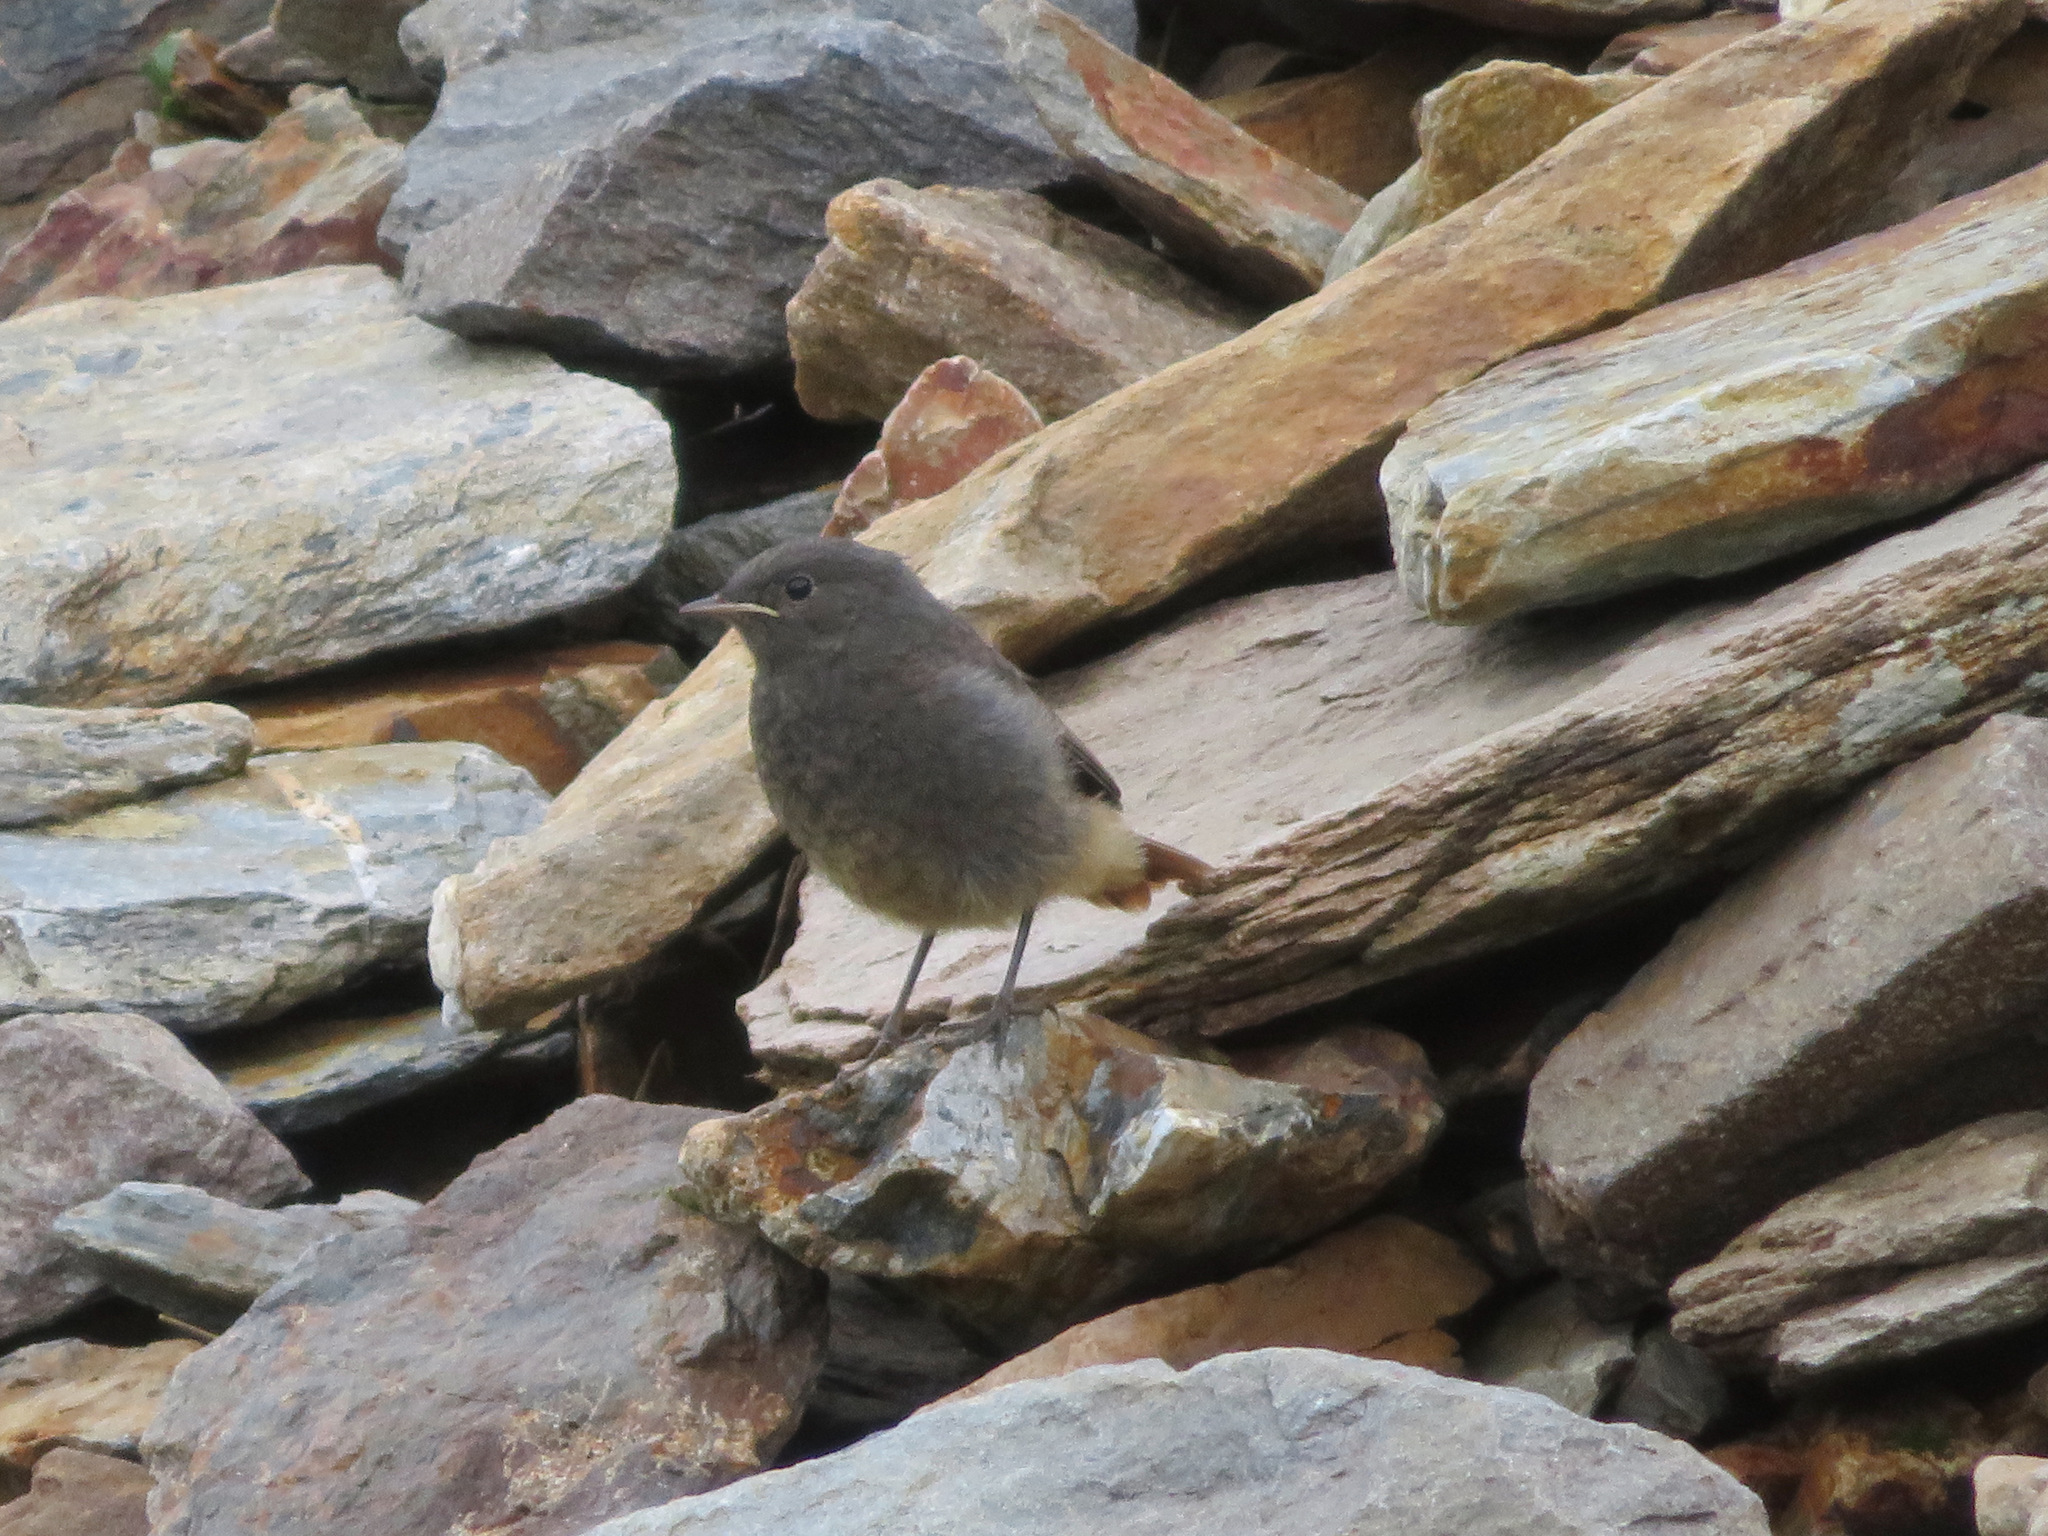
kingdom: Animalia
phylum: Chordata
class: Aves
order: Passeriformes
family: Muscicapidae
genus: Phoenicurus
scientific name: Phoenicurus ochruros
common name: Black redstart
